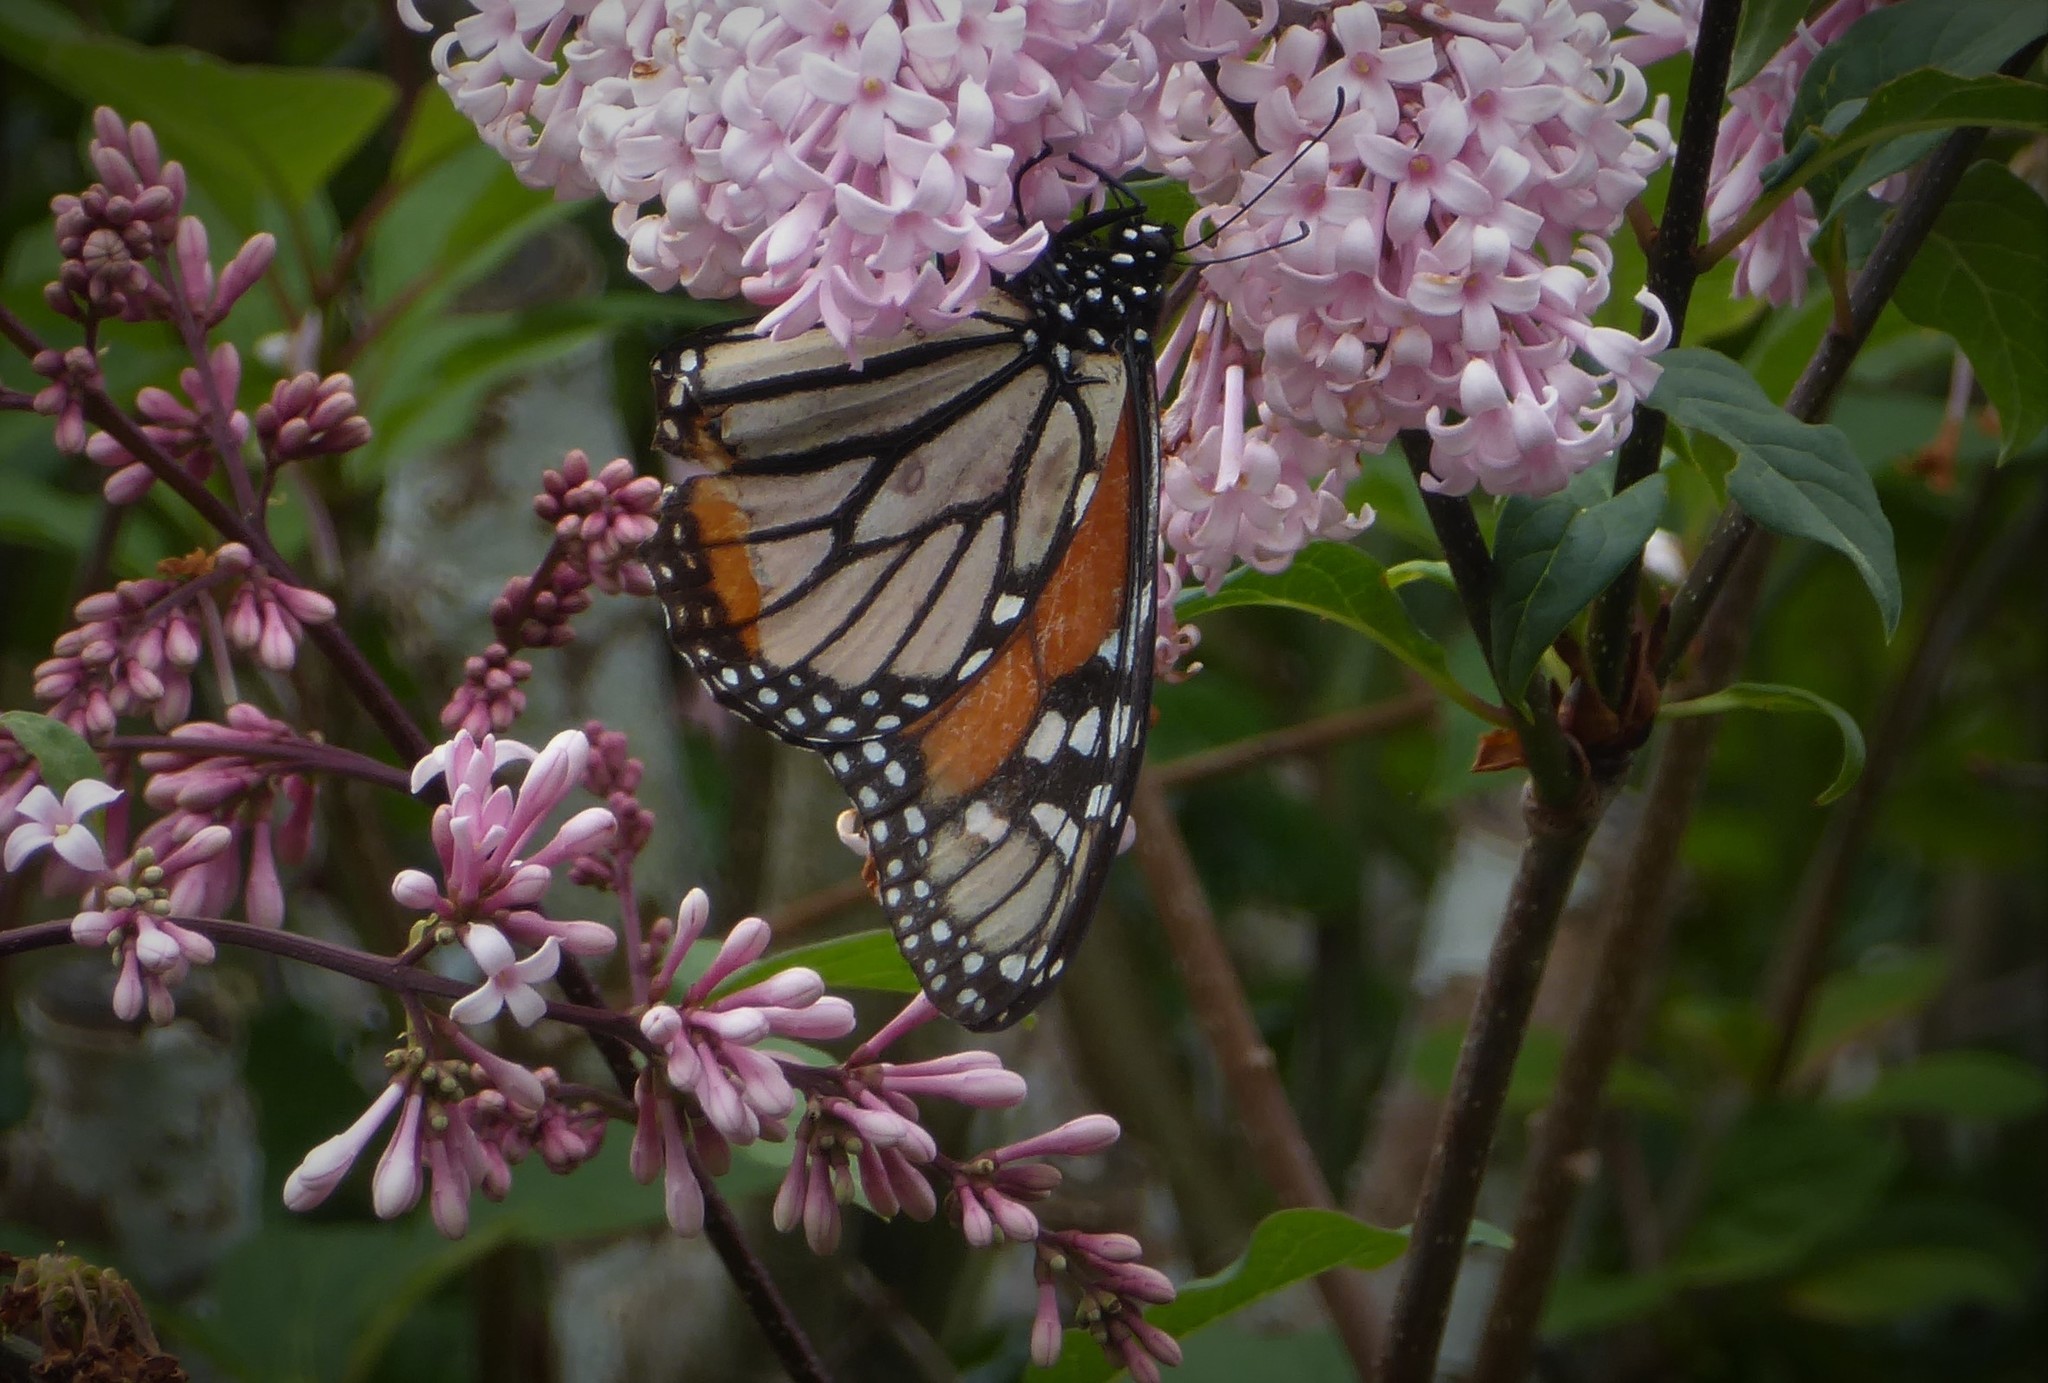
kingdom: Animalia
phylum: Arthropoda
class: Insecta
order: Lepidoptera
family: Nymphalidae
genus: Danaus
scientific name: Danaus plexippus
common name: Monarch
